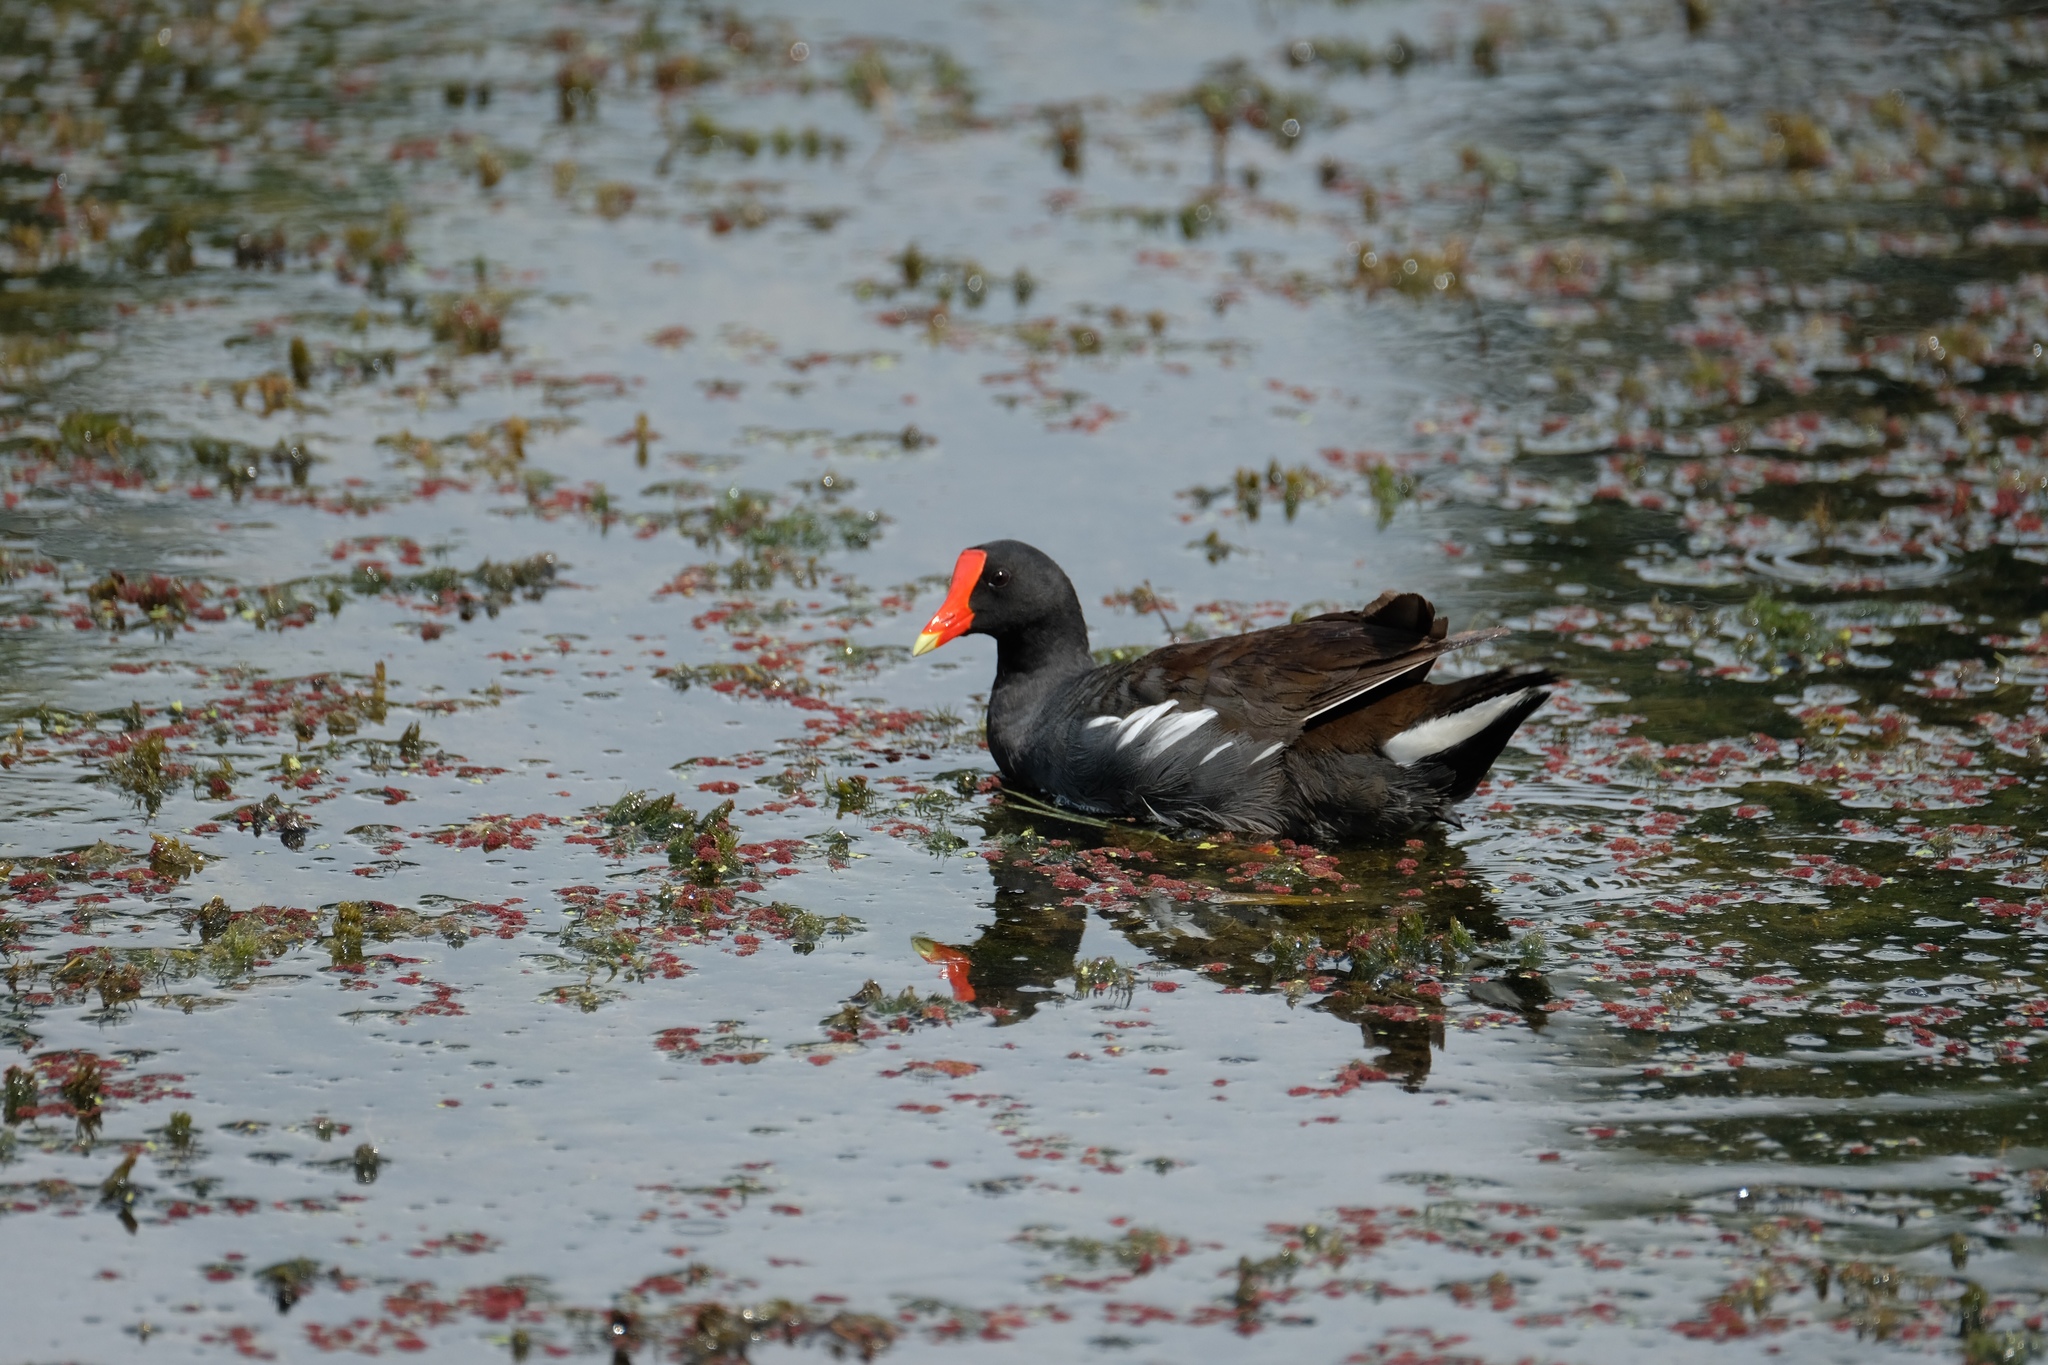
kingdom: Animalia
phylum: Chordata
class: Aves
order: Gruiformes
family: Rallidae
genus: Gallinula
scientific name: Gallinula chloropus
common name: Common moorhen
